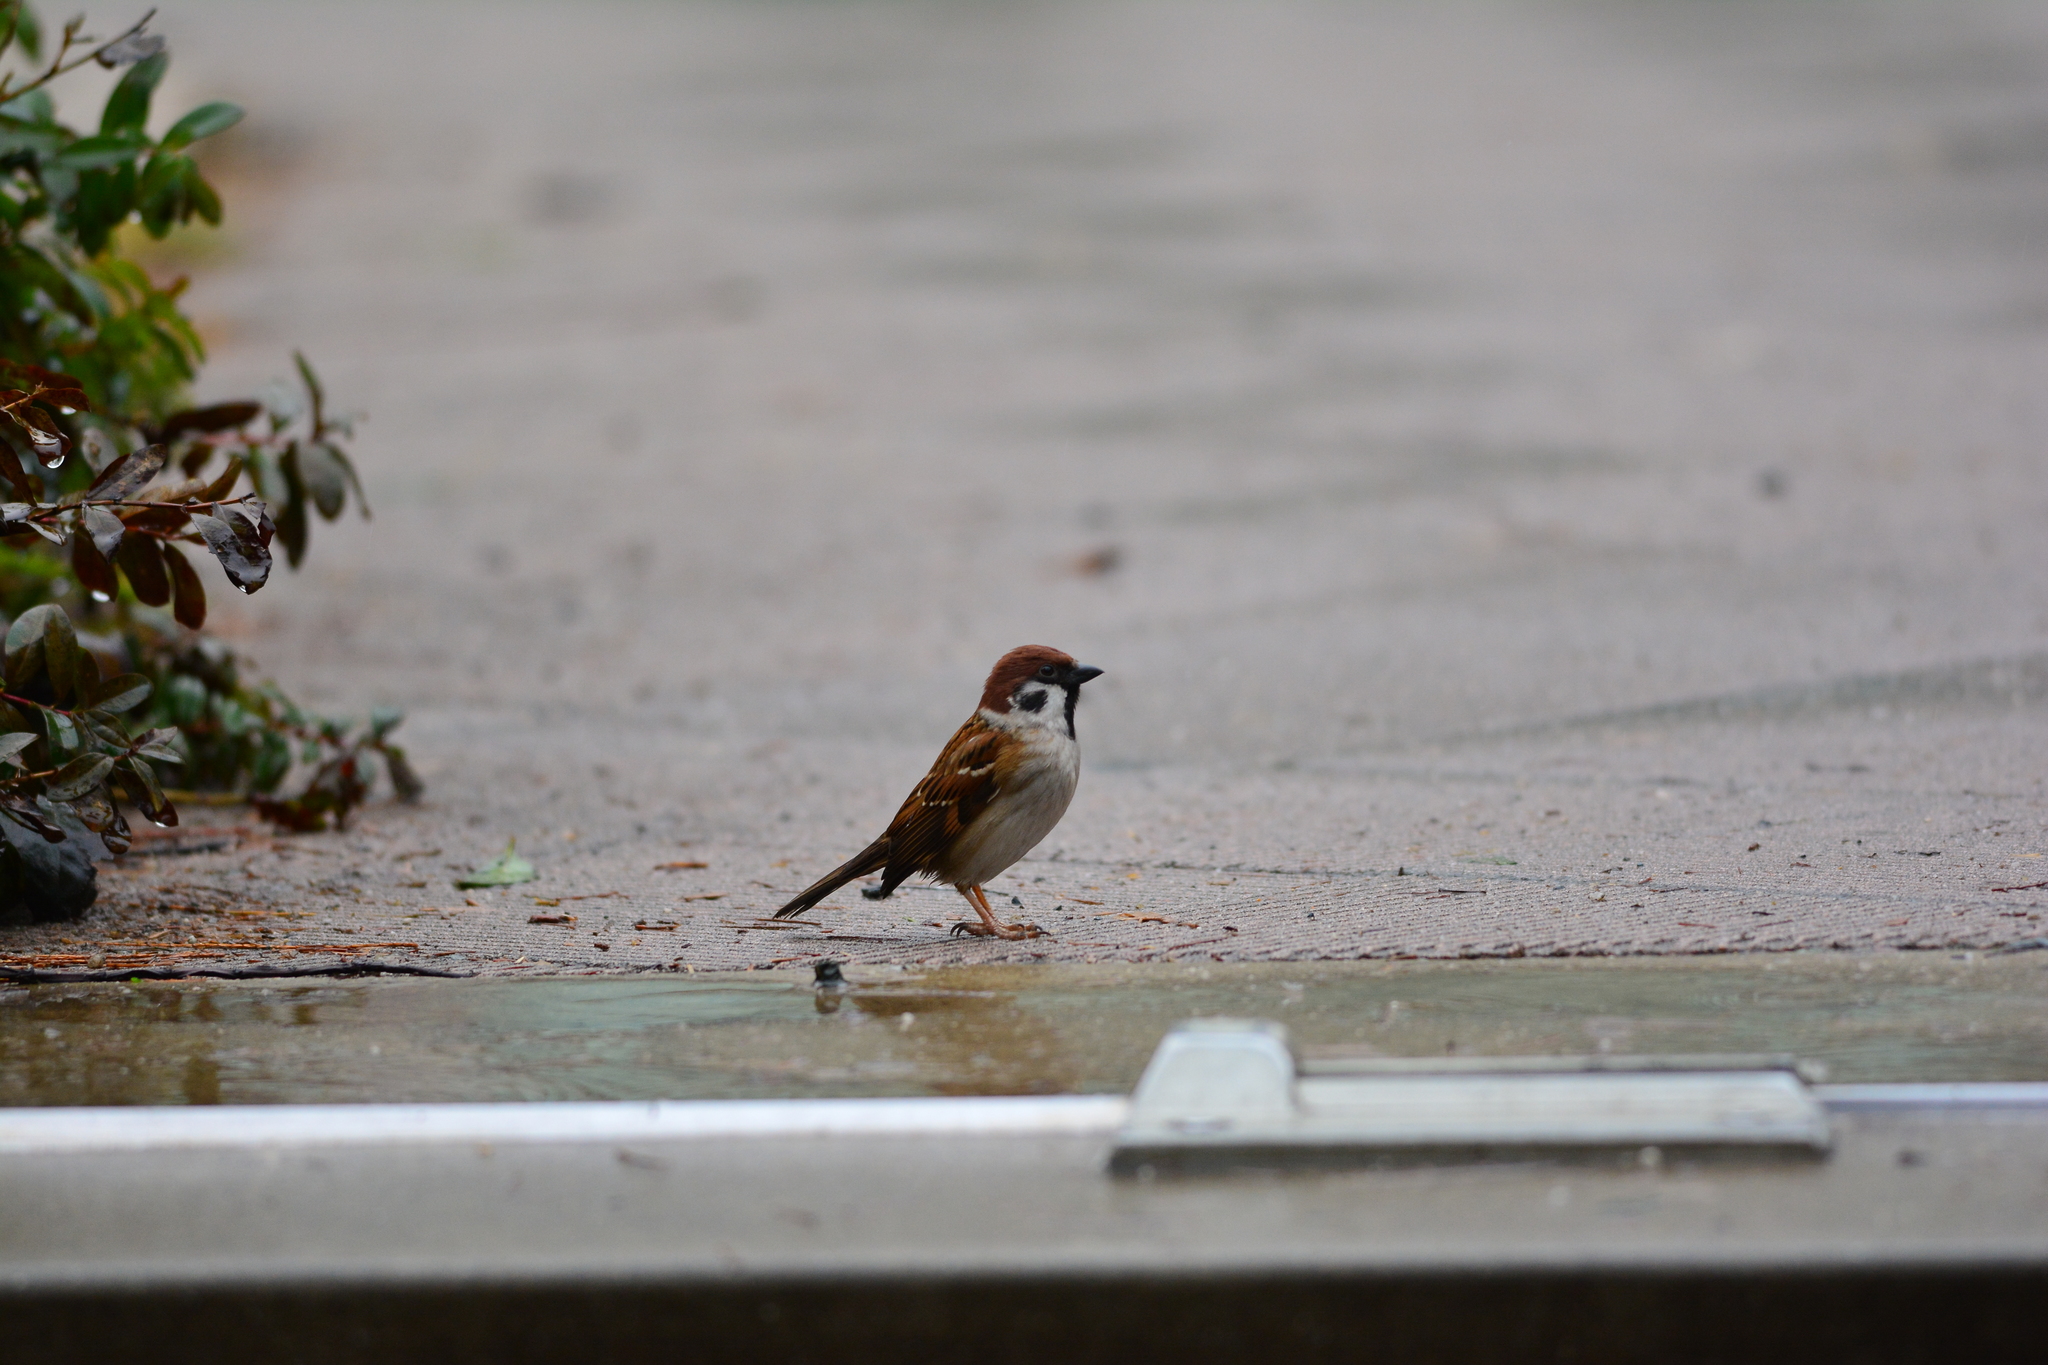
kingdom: Animalia
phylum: Chordata
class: Aves
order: Passeriformes
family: Passeridae
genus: Passer
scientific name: Passer montanus
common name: Eurasian tree sparrow
